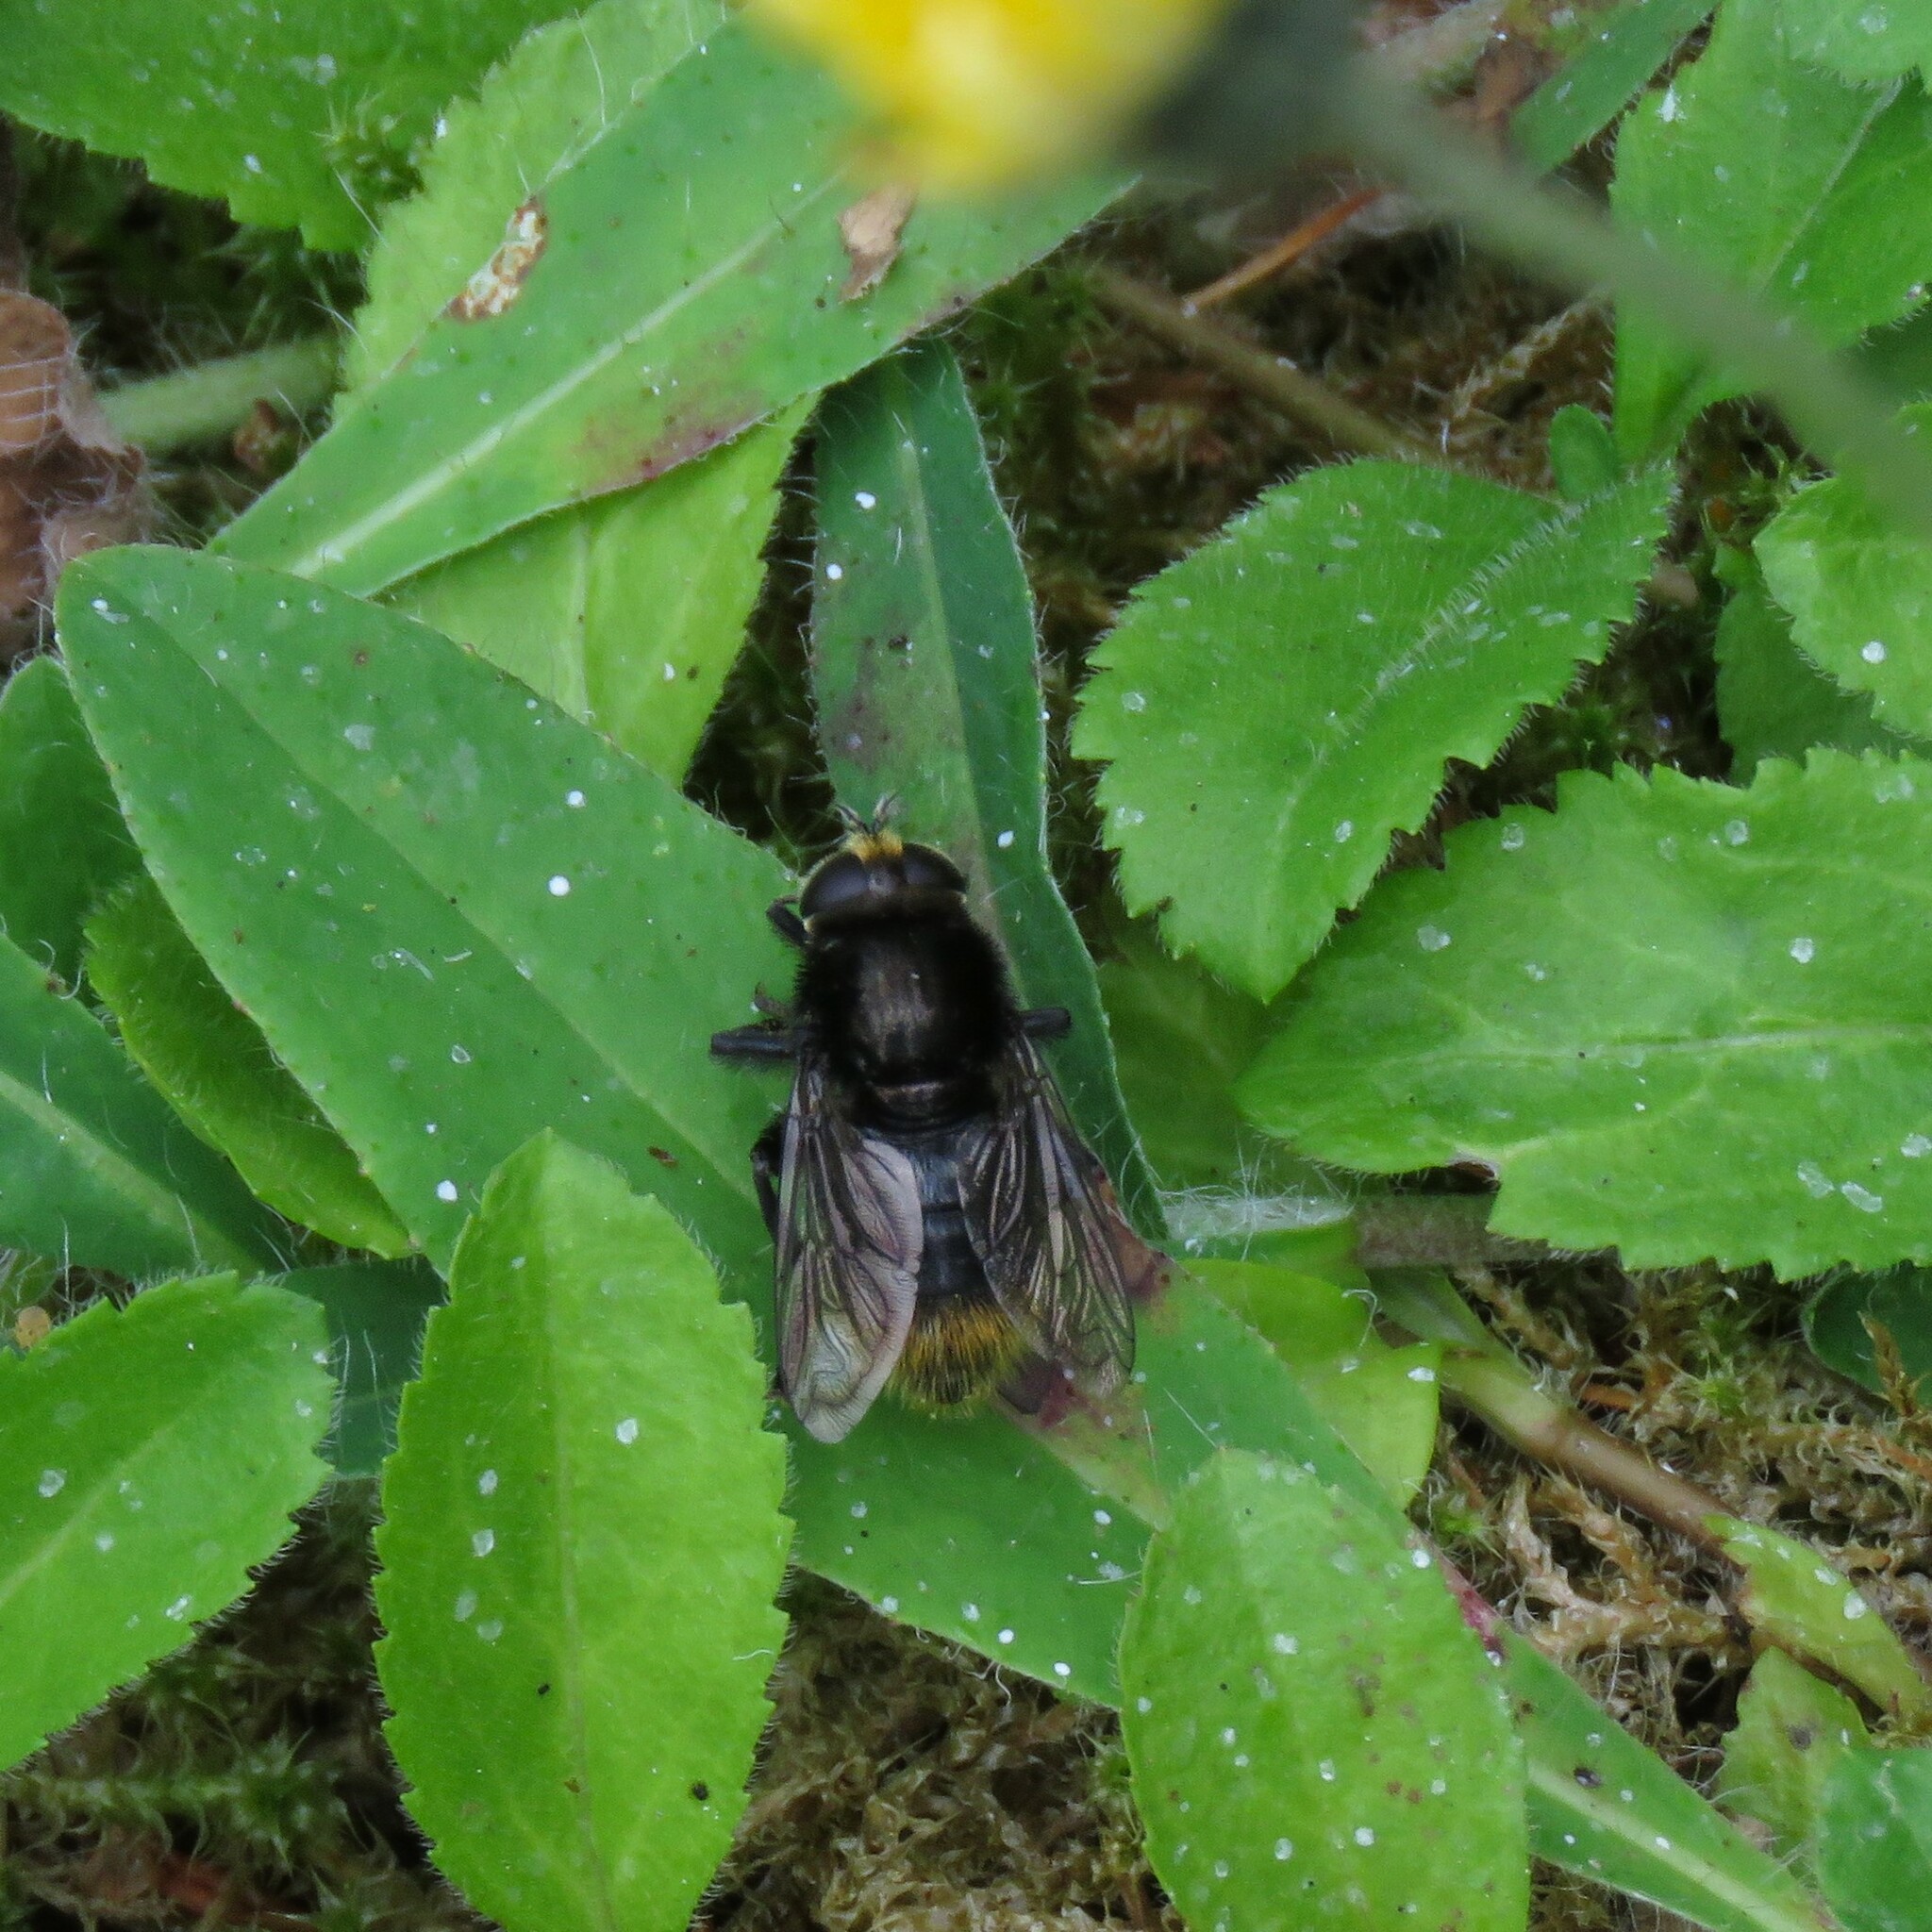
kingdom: Animalia
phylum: Arthropoda
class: Insecta
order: Diptera
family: Syrphidae
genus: Merodon
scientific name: Merodon equestris
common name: Greater bulb-fly
